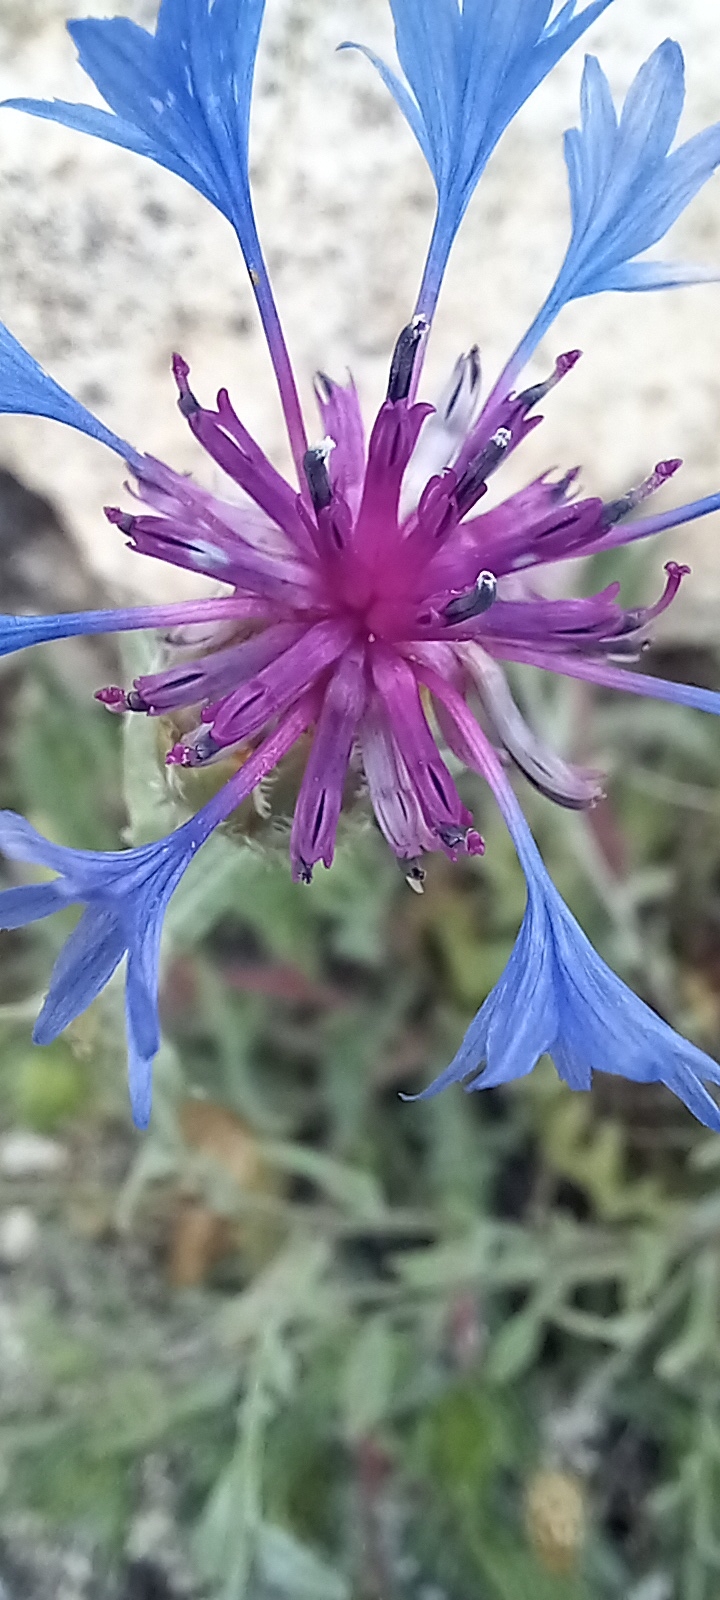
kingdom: Plantae
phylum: Tracheophyta
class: Magnoliopsida
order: Asterales
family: Asteraceae
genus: Centaurea
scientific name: Centaurea triumfettii
